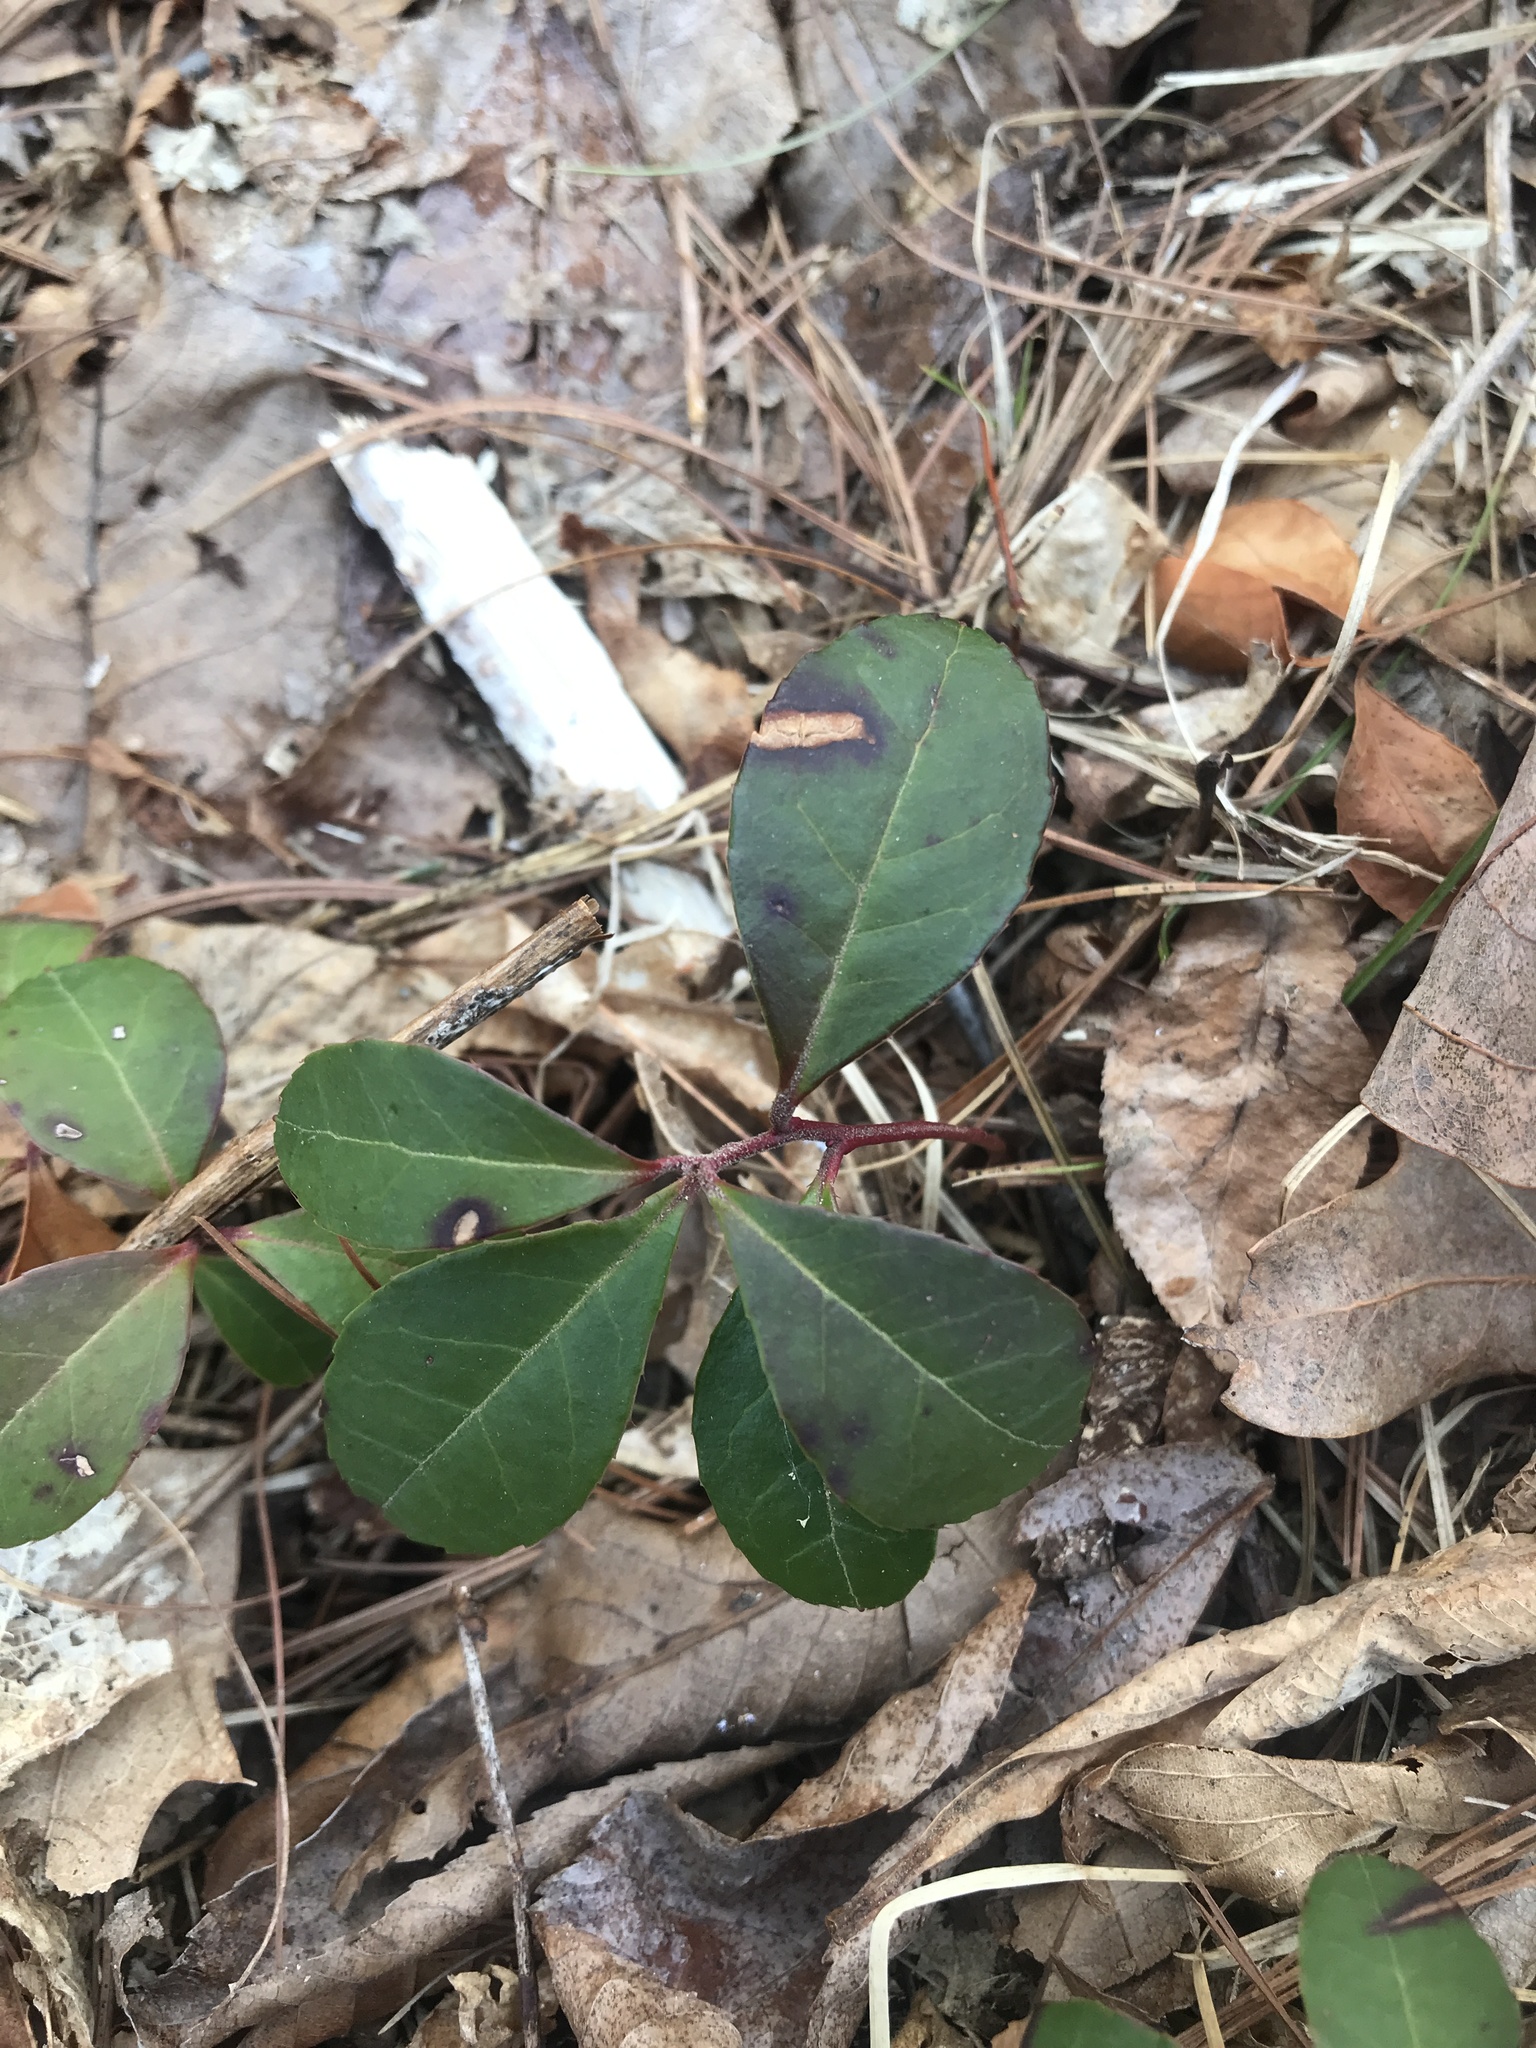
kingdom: Plantae
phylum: Tracheophyta
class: Magnoliopsida
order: Ericales
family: Ericaceae
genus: Gaultheria
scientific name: Gaultheria procumbens
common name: Checkerberry
